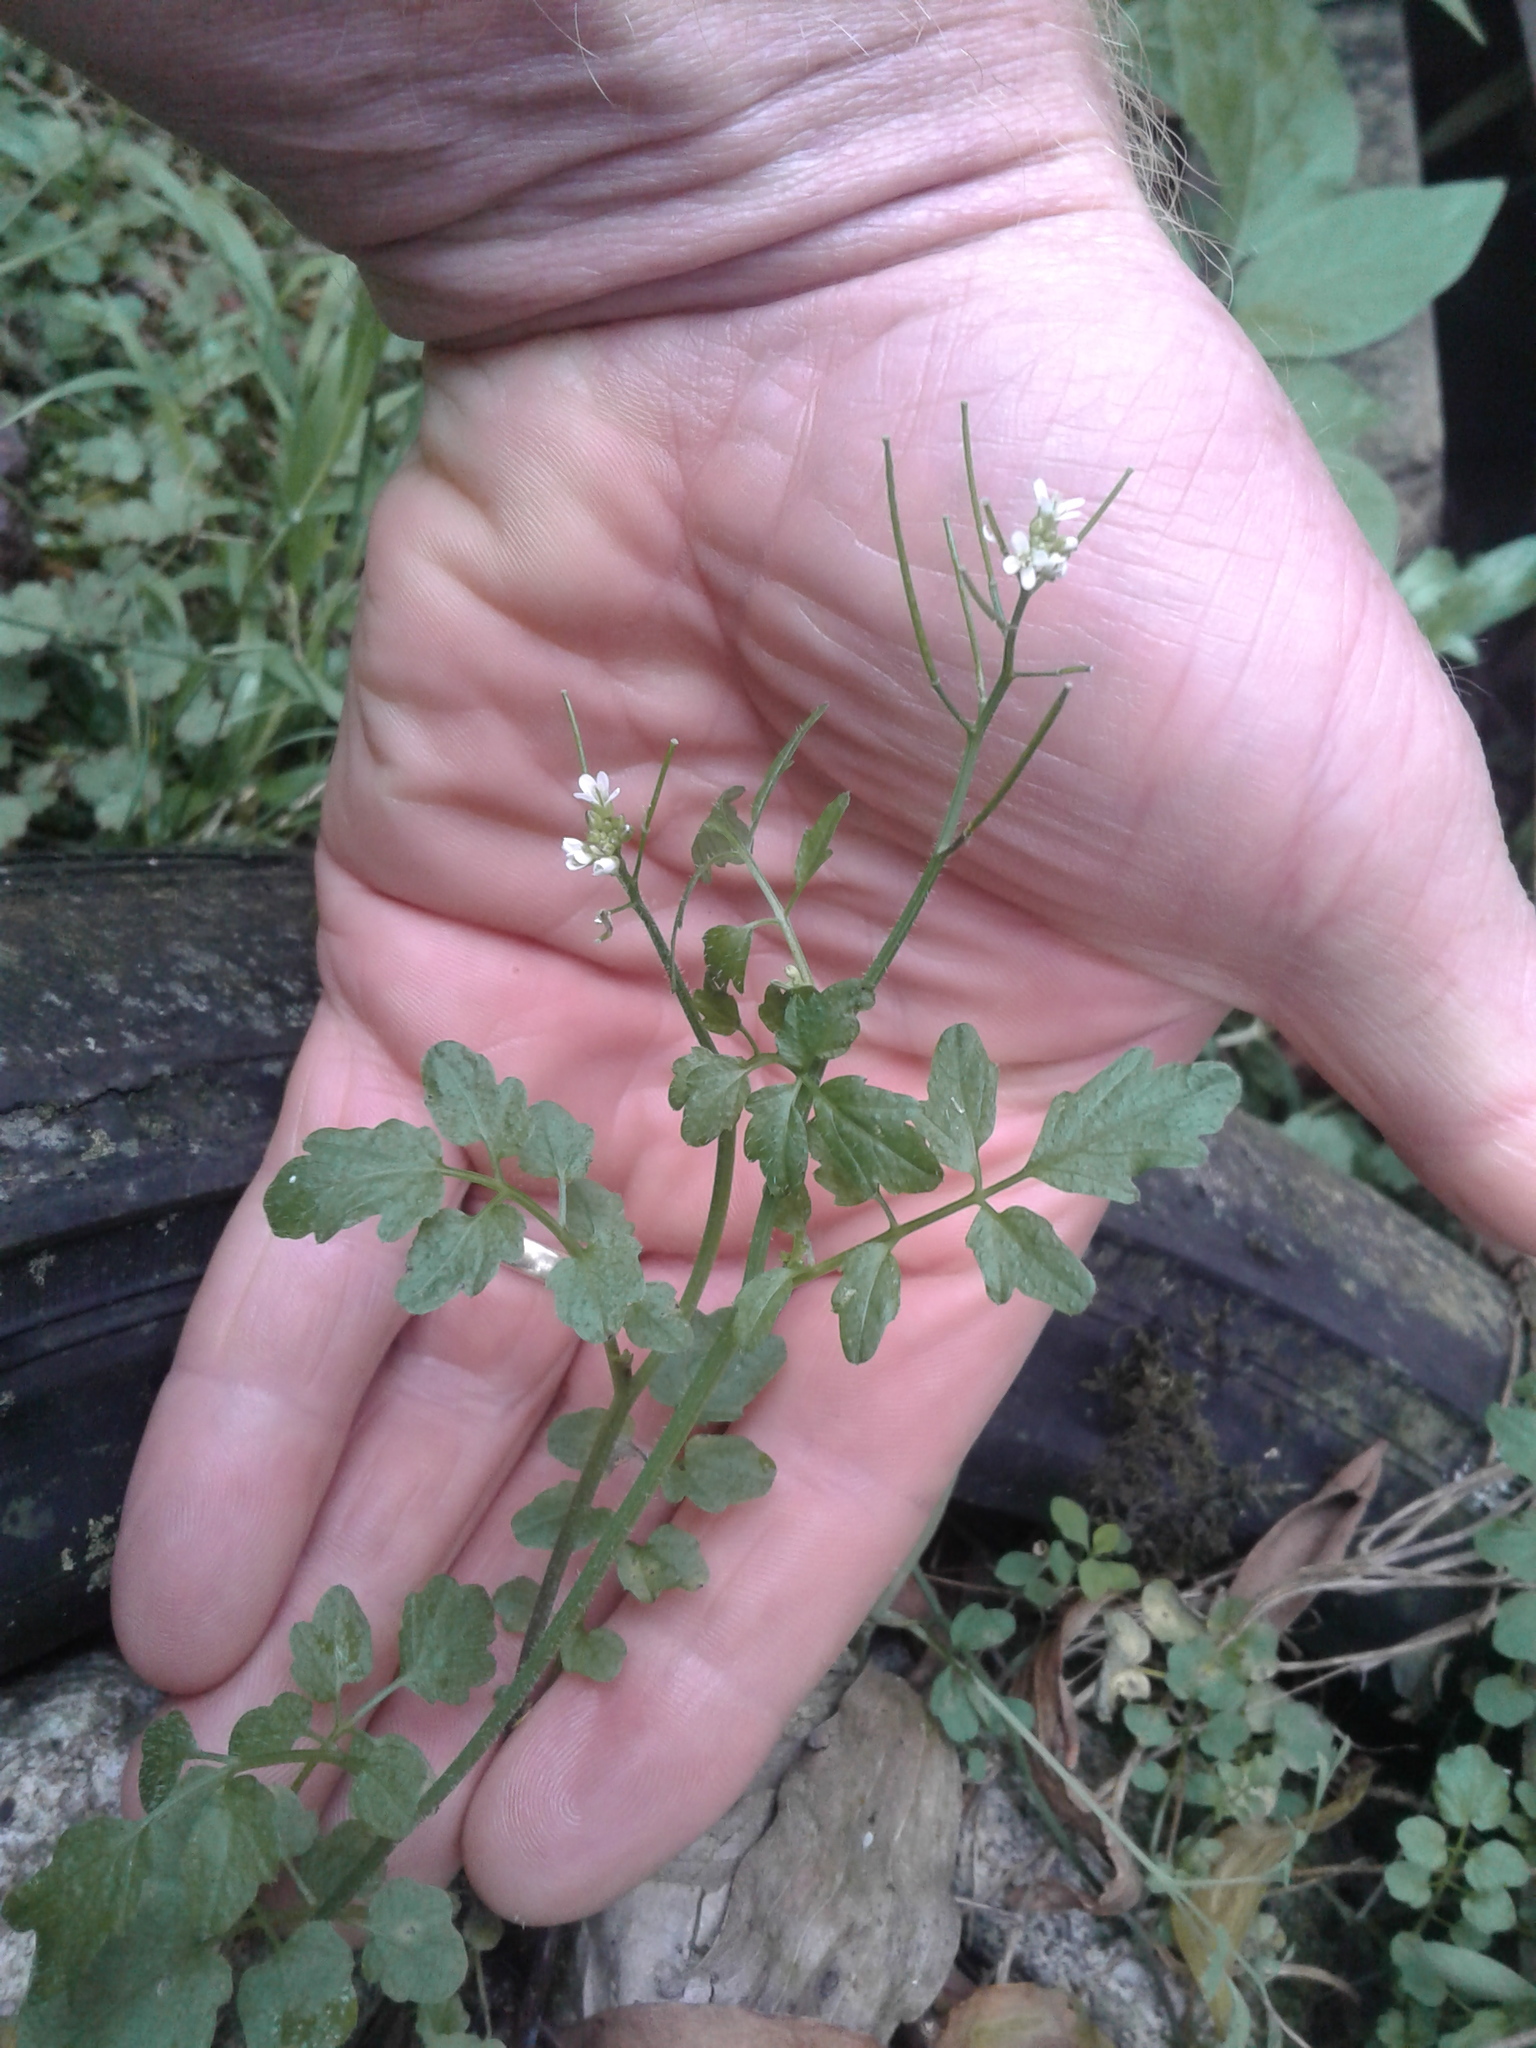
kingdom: Plantae
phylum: Tracheophyta
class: Magnoliopsida
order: Brassicales
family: Brassicaceae
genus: Cardamine
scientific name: Cardamine flexuosa
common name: Woodland bittercress
